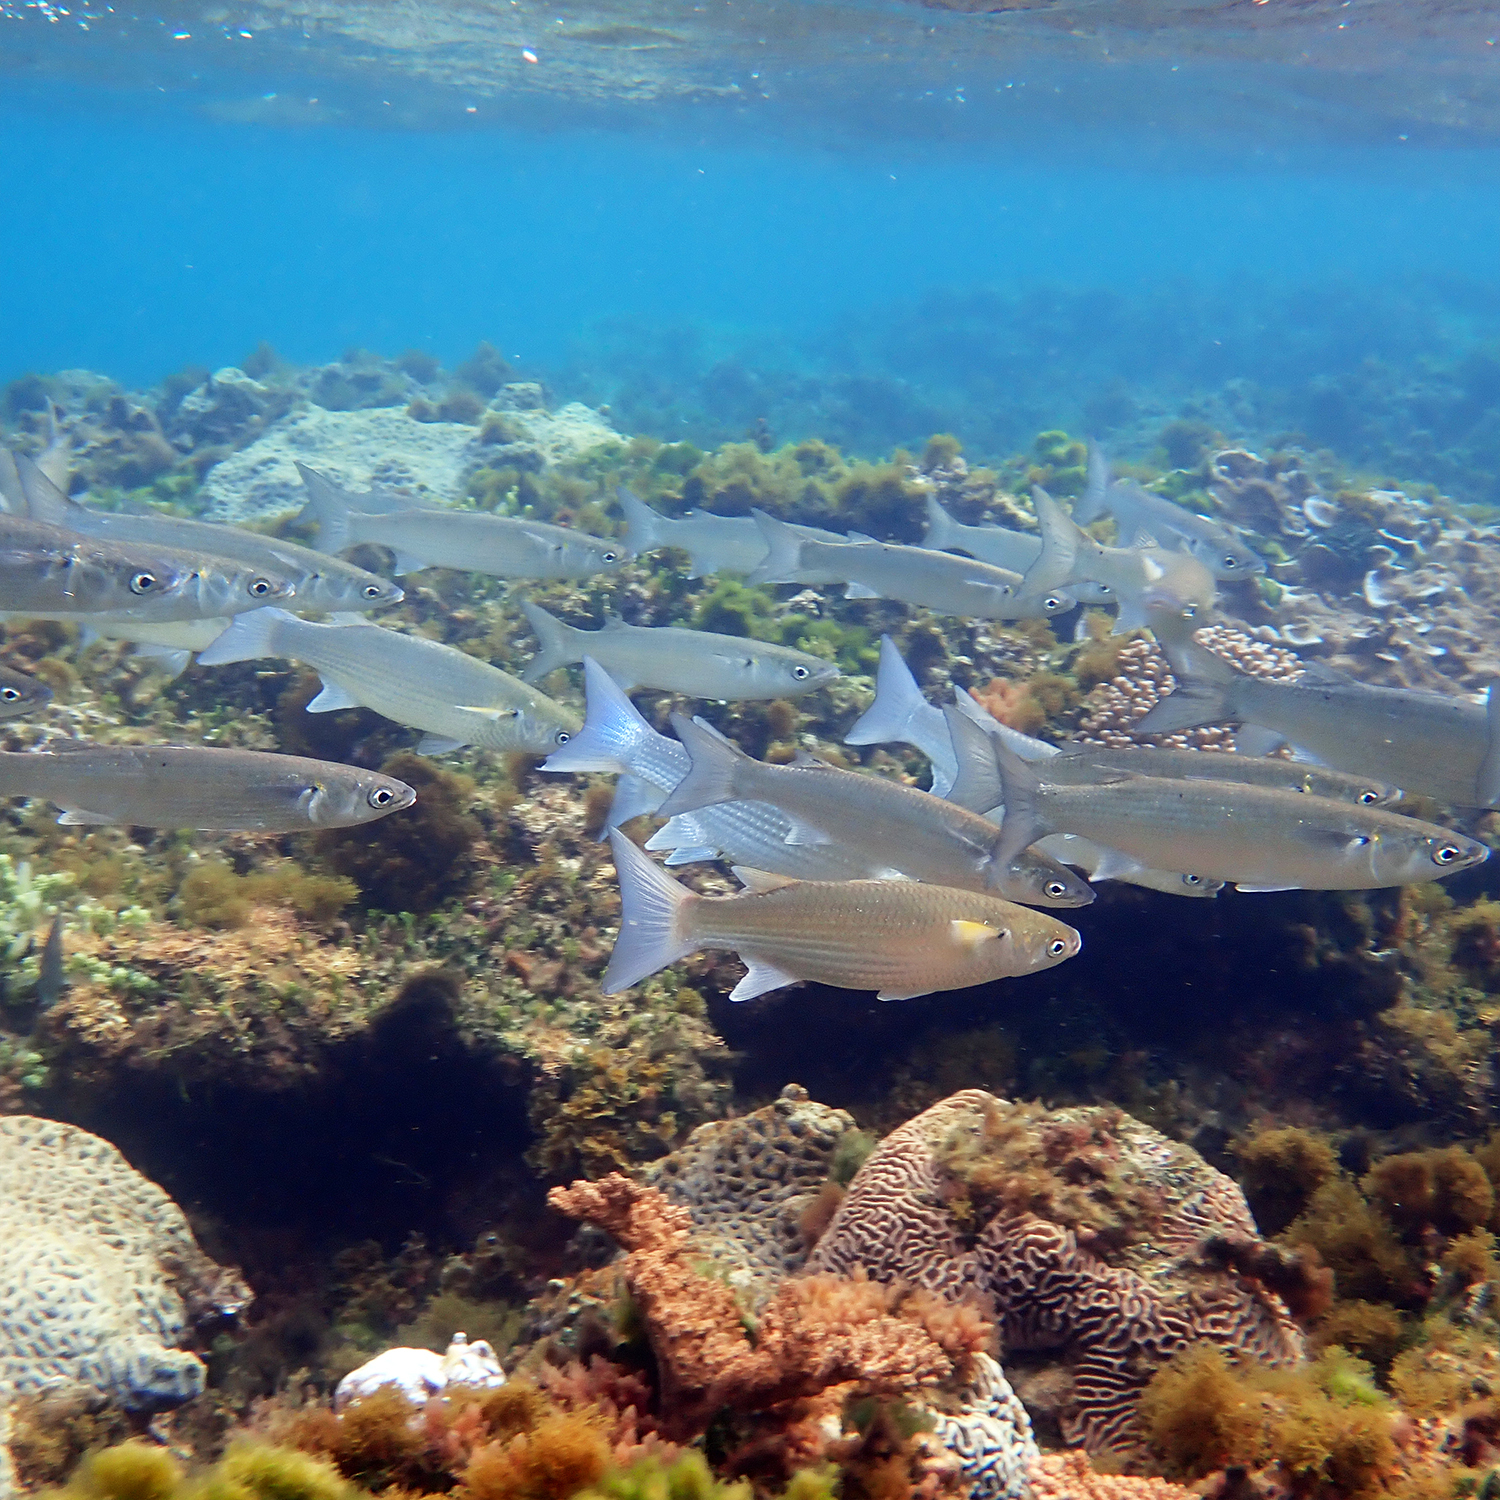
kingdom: Animalia
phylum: Chordata
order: Mugiliformes
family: Mugilidae
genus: Myxus
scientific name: Myxus elongatus
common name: Sand grey mullet
